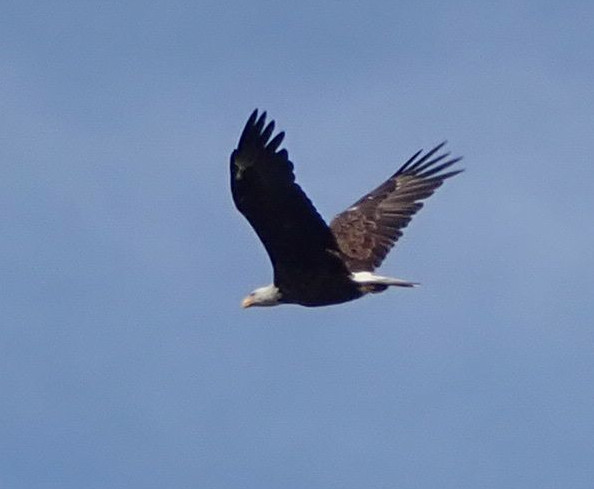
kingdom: Animalia
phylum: Chordata
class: Aves
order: Accipitriformes
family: Accipitridae
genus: Haliaeetus
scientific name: Haliaeetus leucocephalus
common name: Bald eagle
